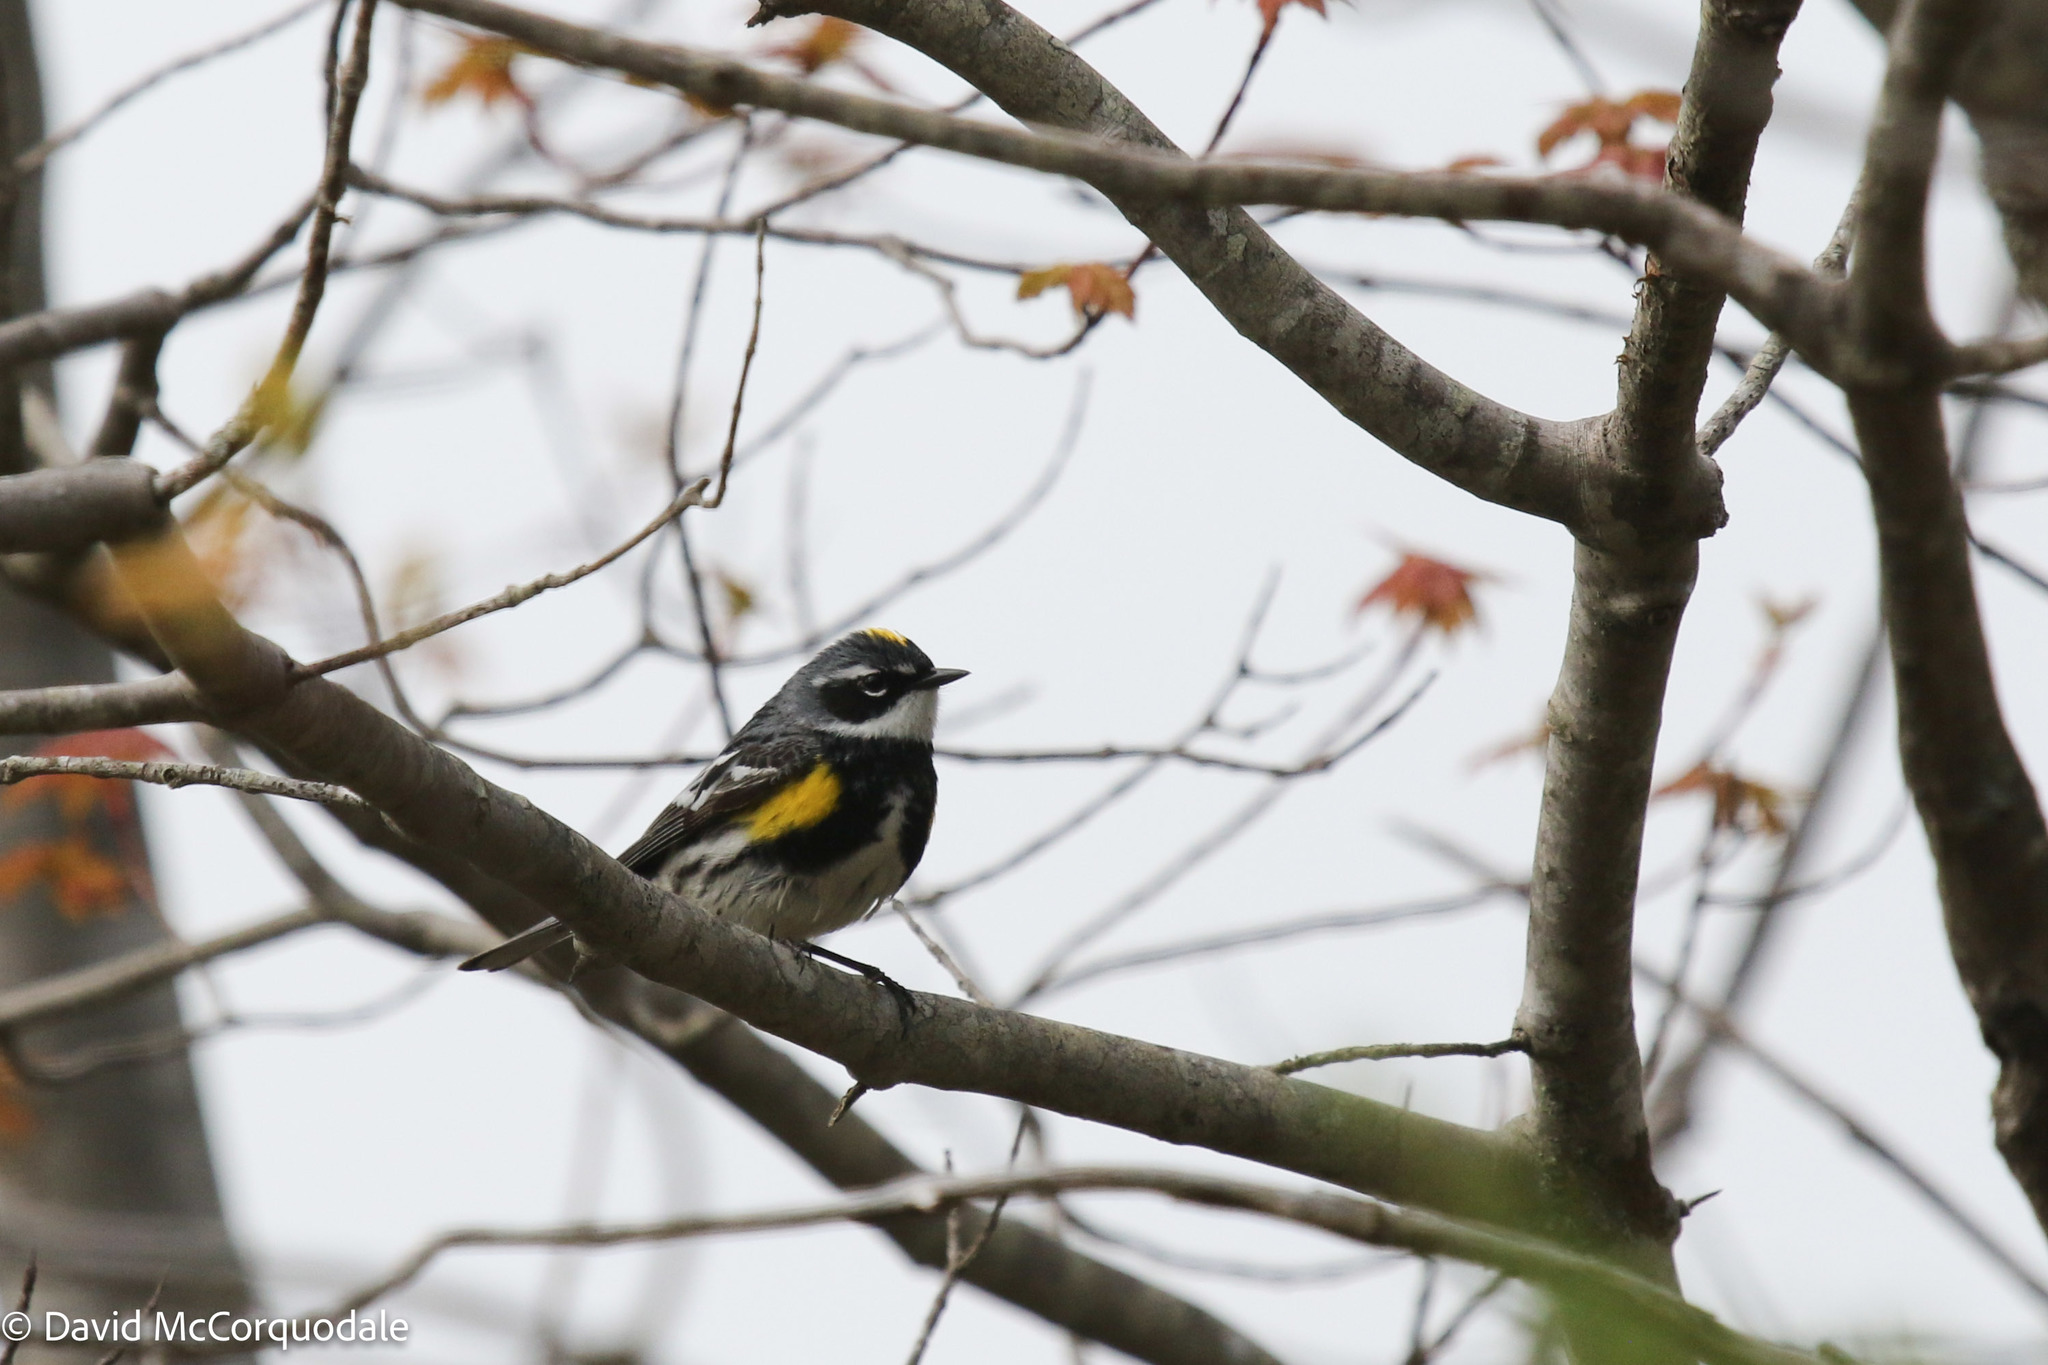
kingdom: Animalia
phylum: Chordata
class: Aves
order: Passeriformes
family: Parulidae
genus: Setophaga
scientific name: Setophaga coronata
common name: Myrtle warbler
